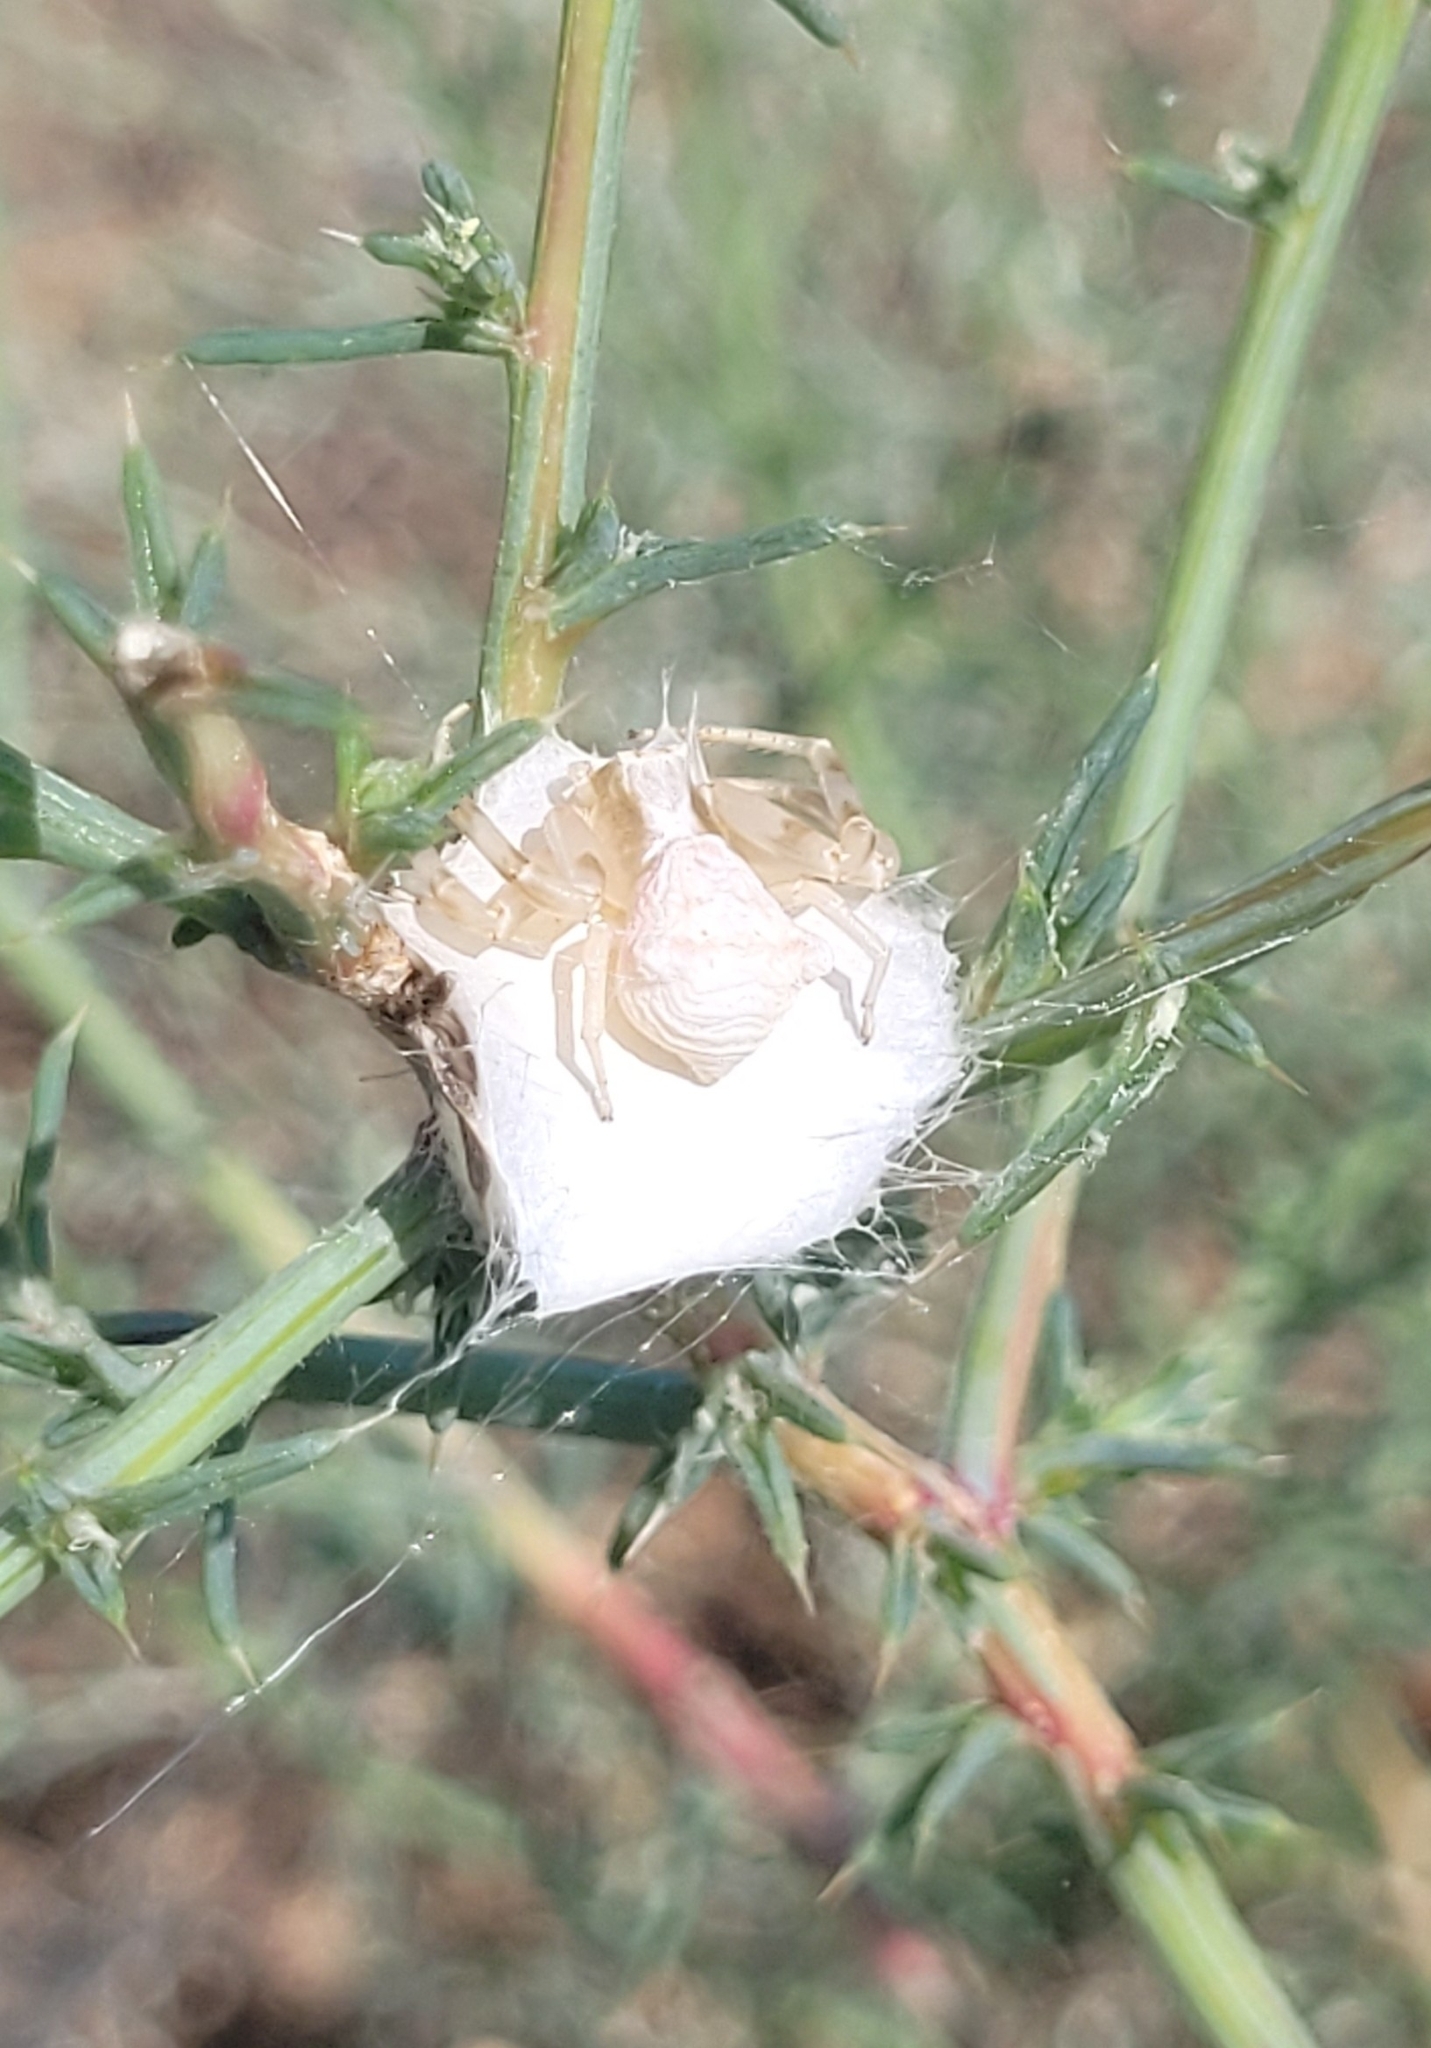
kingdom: Animalia
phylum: Arthropoda
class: Arachnida
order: Araneae
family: Thomisidae
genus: Thomisus
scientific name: Thomisus onustus
